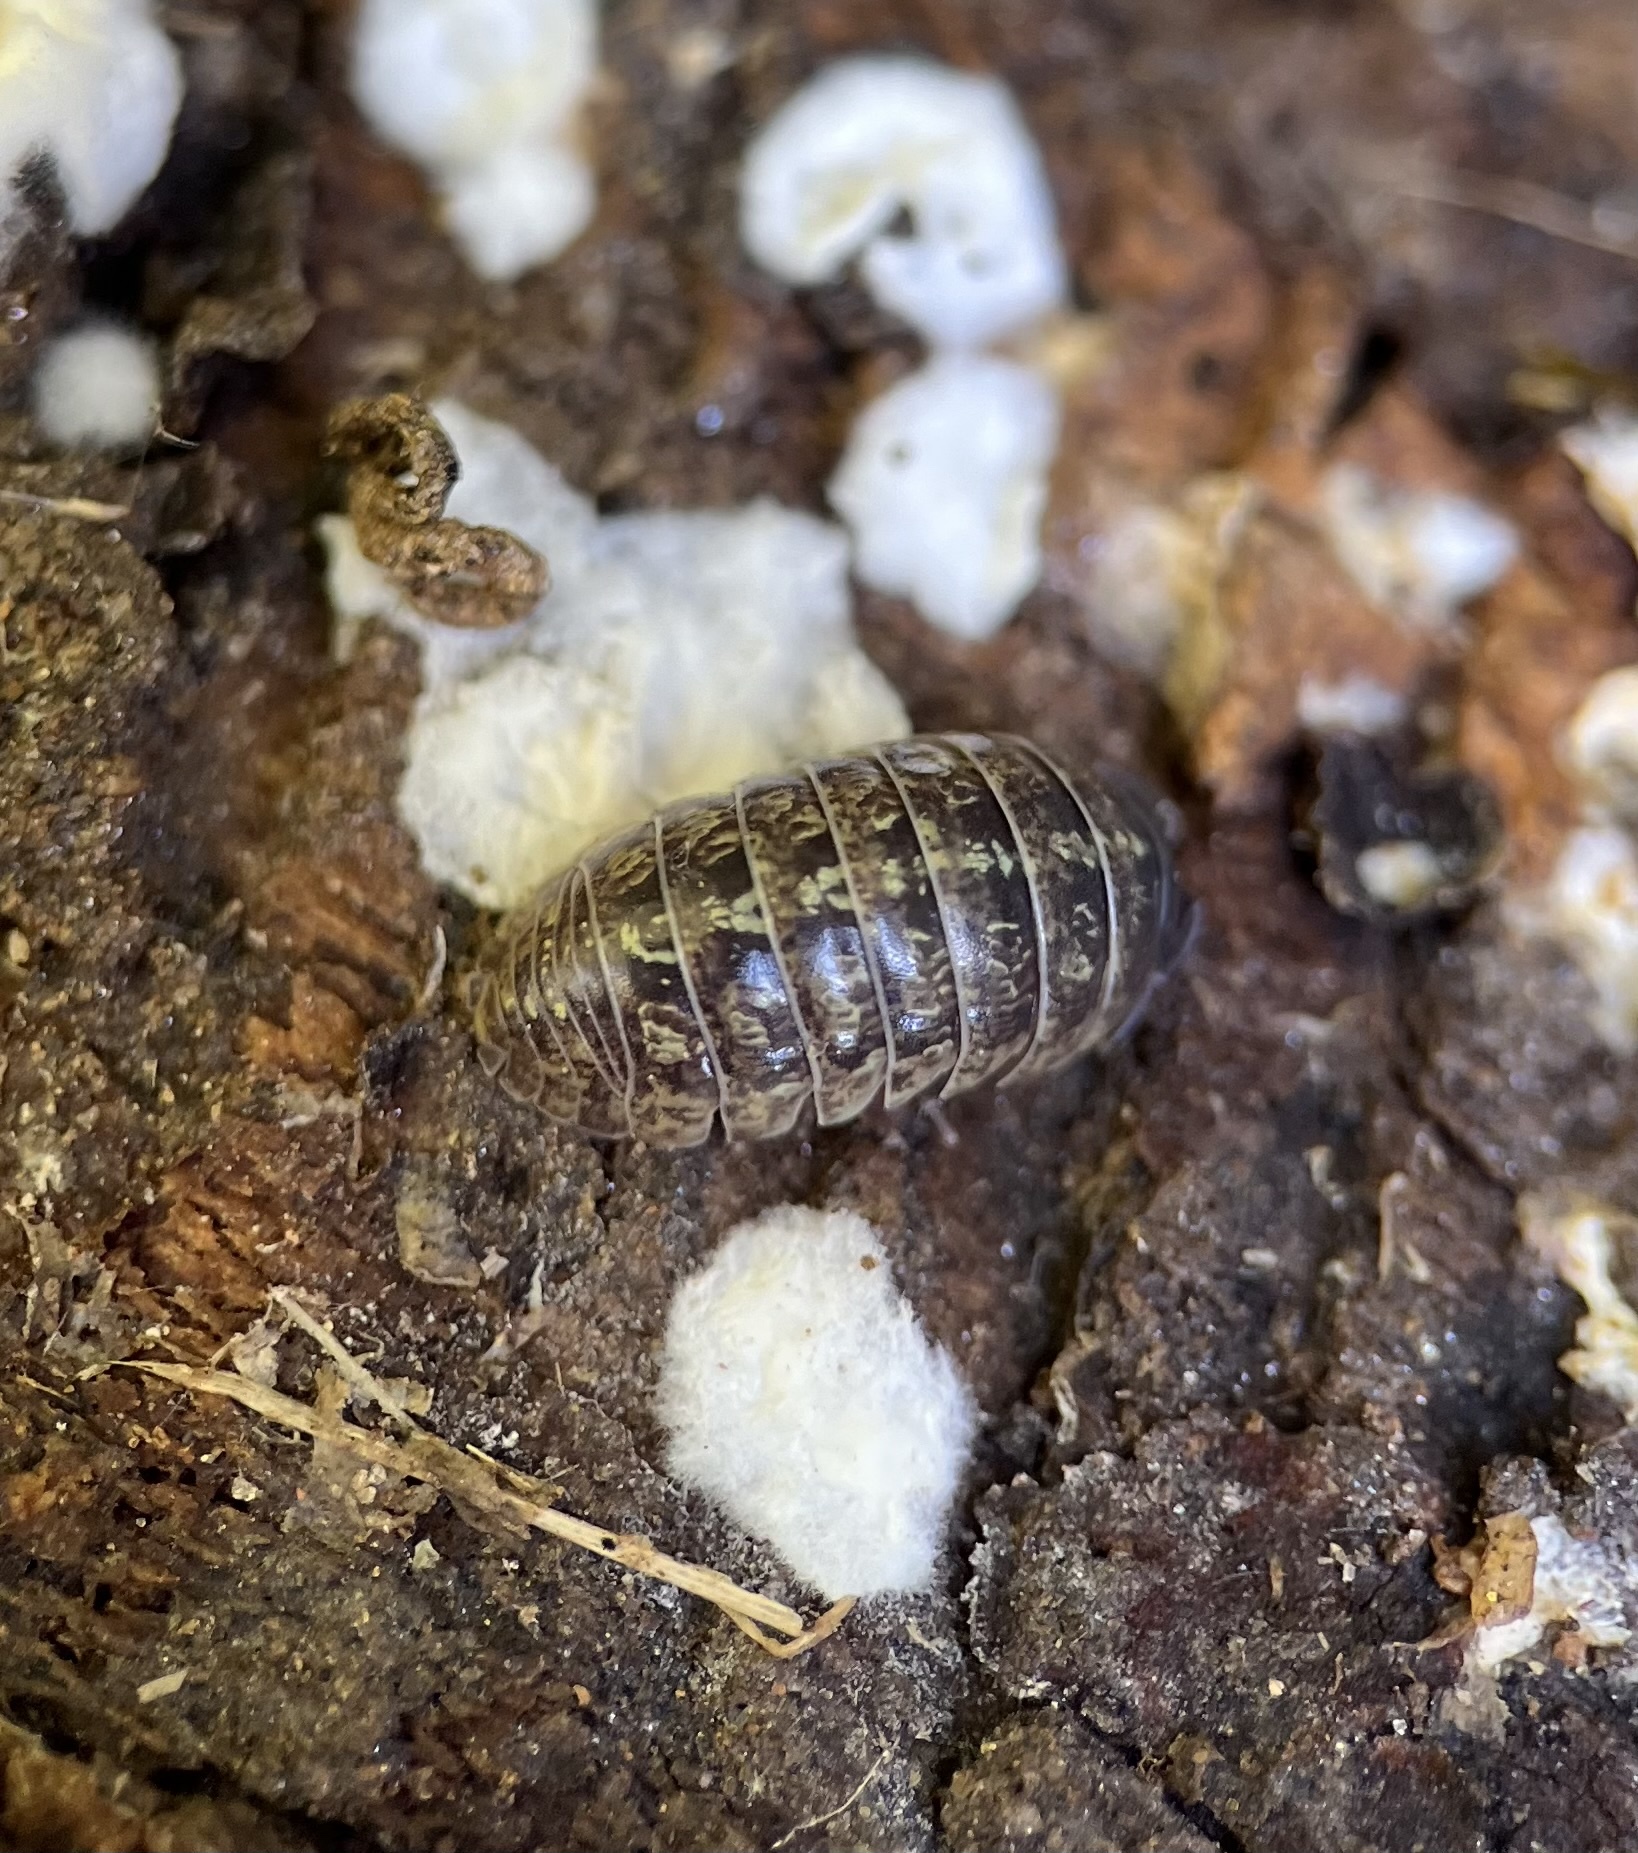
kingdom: Animalia
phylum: Arthropoda
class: Malacostraca
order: Isopoda
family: Armadillidiidae
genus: Armadillidium
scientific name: Armadillidium vulgare
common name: Common pill woodlouse
